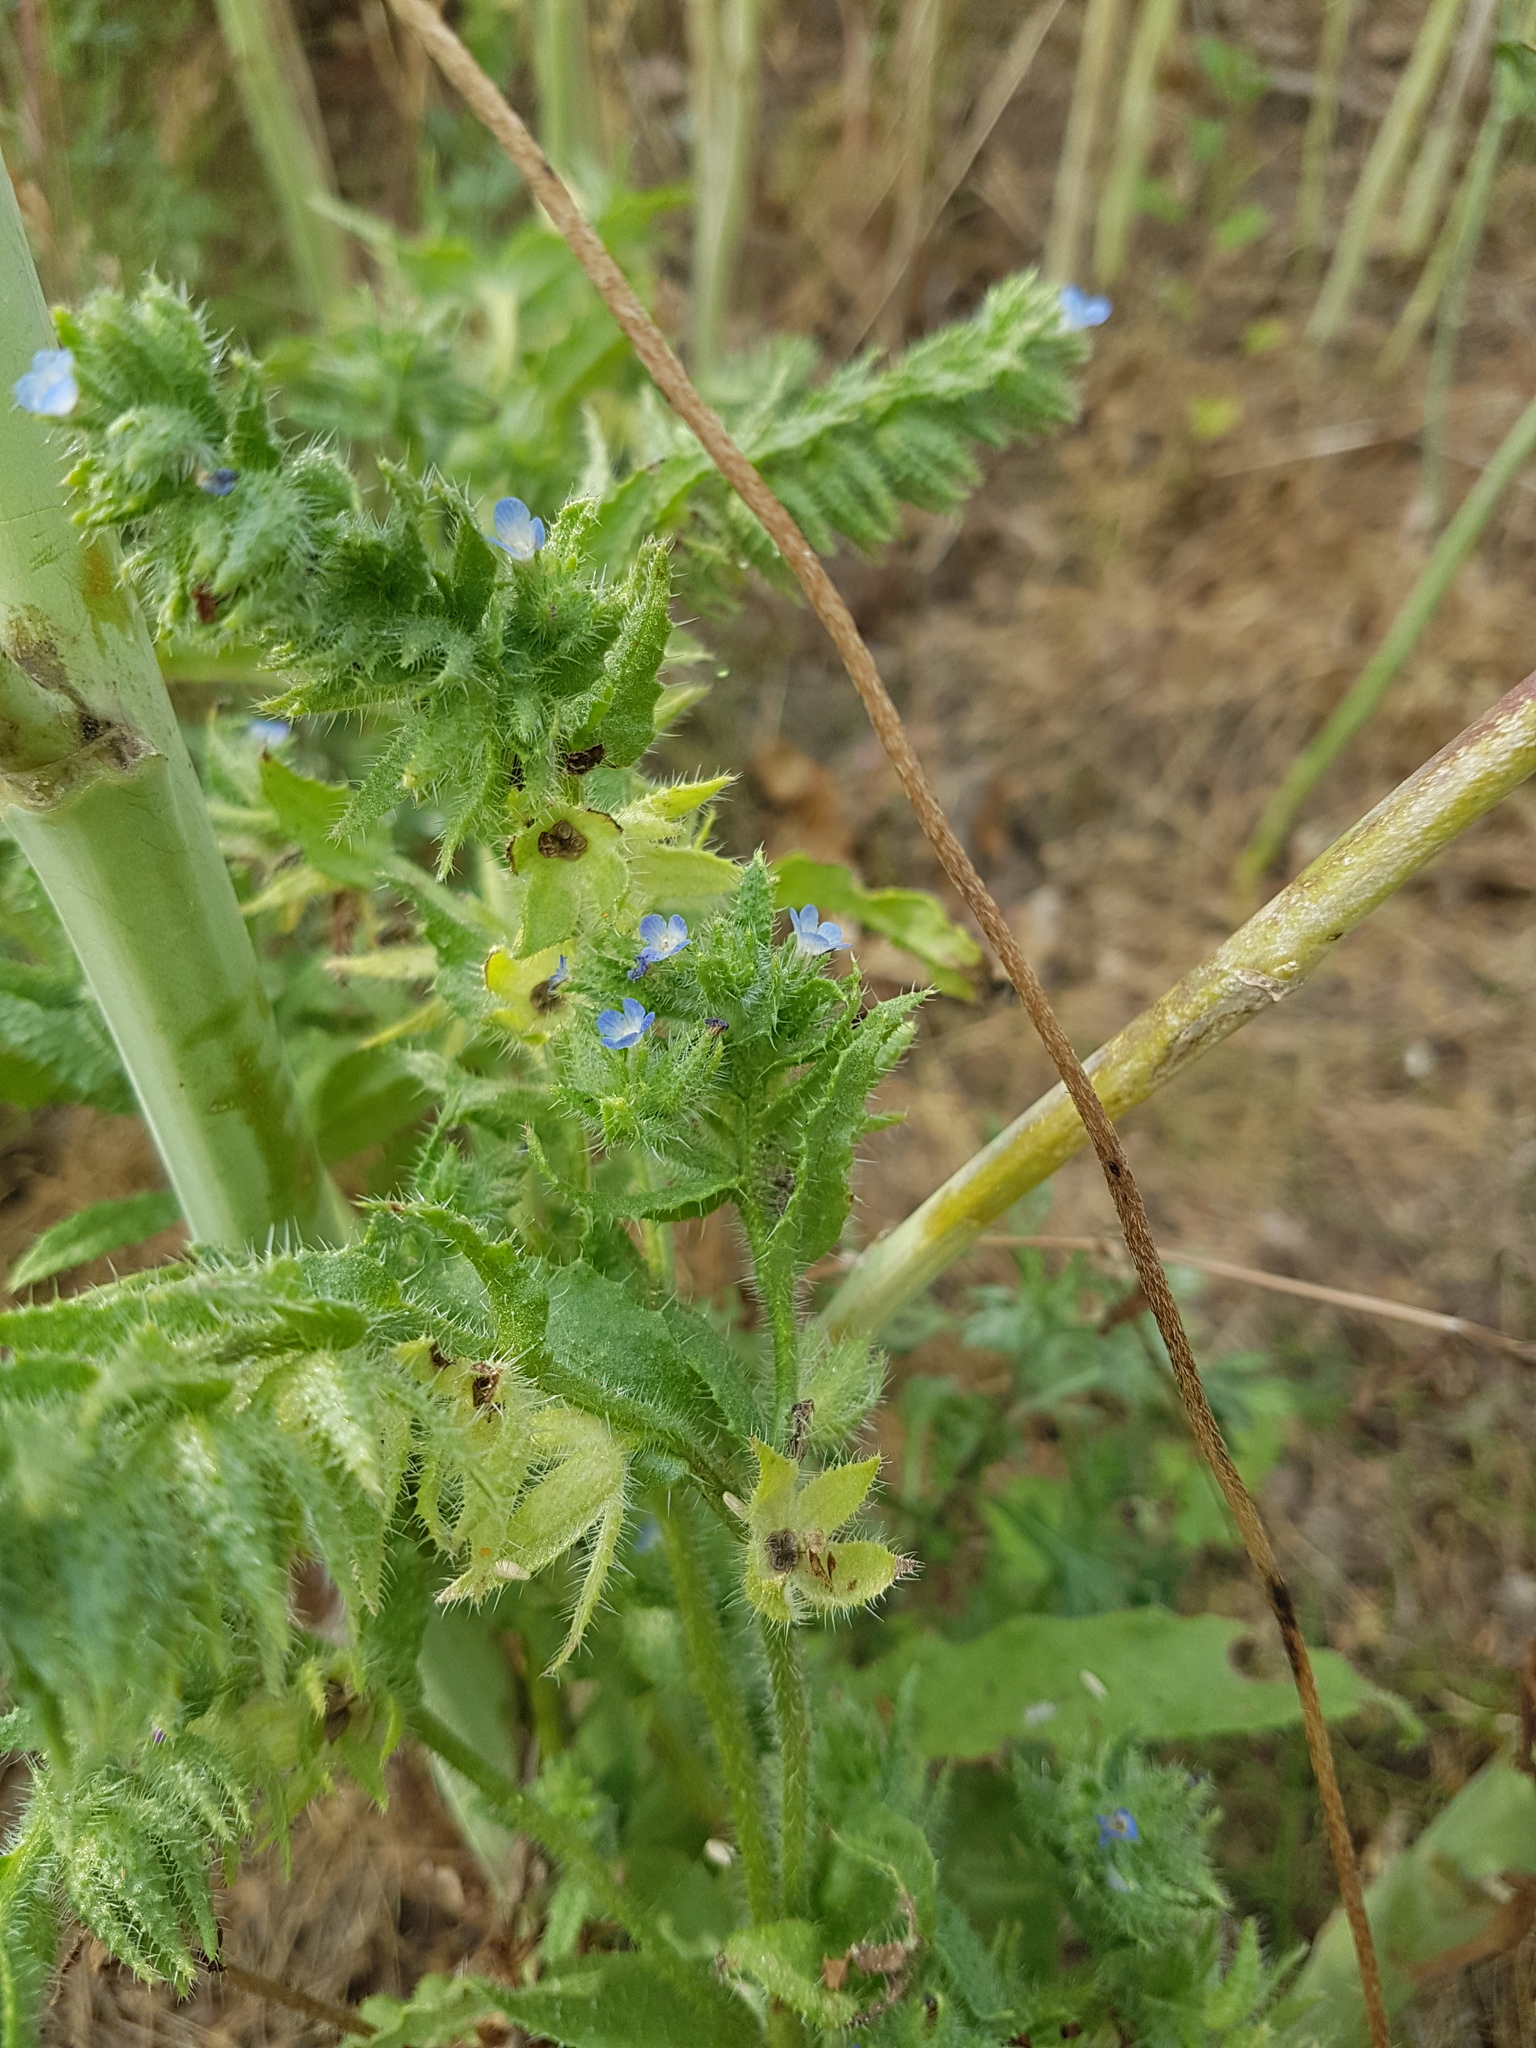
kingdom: Plantae
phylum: Tracheophyta
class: Magnoliopsida
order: Boraginales
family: Boraginaceae
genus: Lycopsis
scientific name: Lycopsis arvensis
